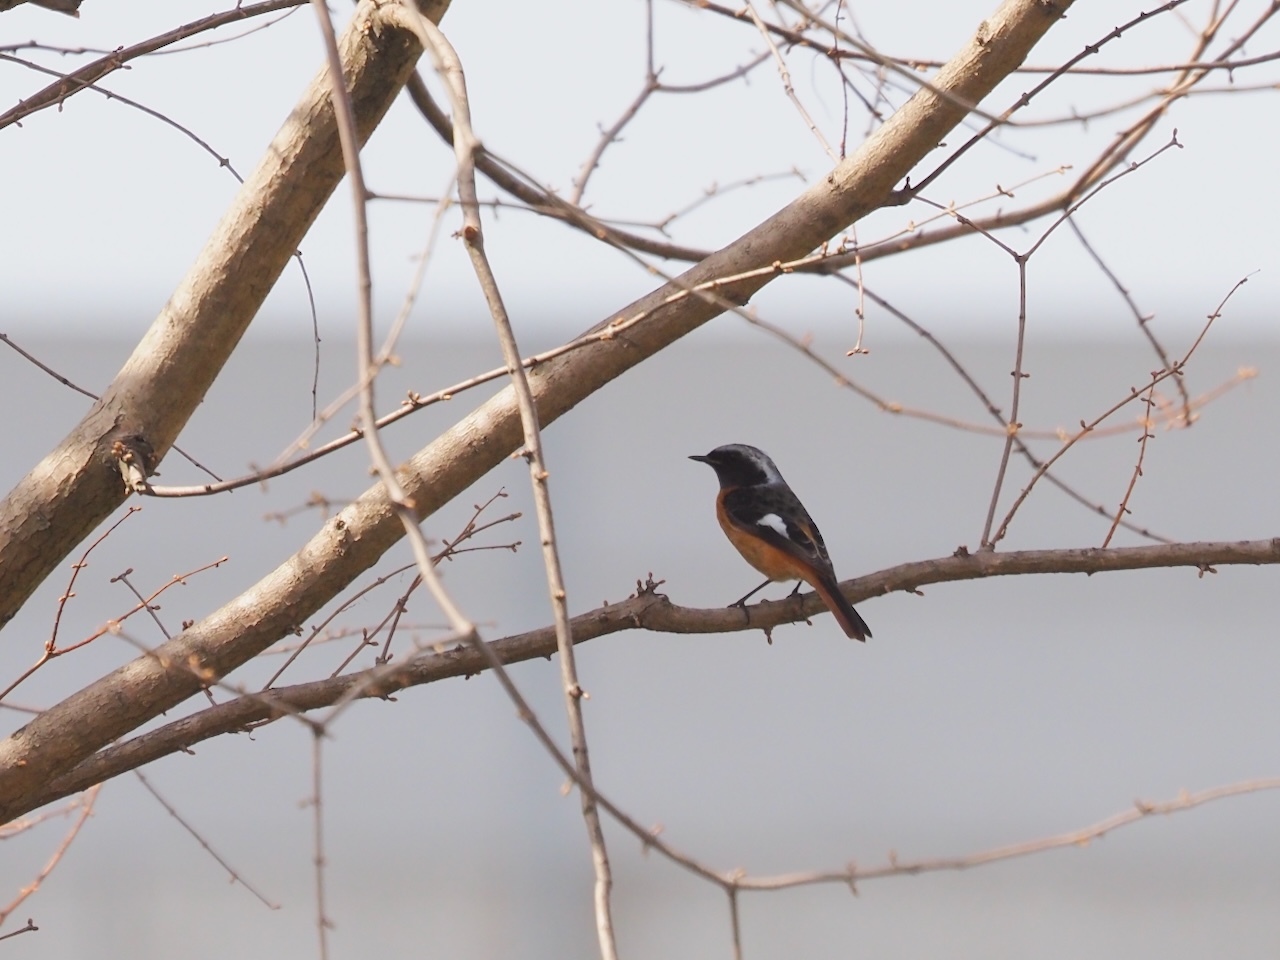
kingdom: Animalia
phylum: Chordata
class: Aves
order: Passeriformes
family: Muscicapidae
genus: Phoenicurus
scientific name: Phoenicurus auroreus
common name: Daurian redstart
